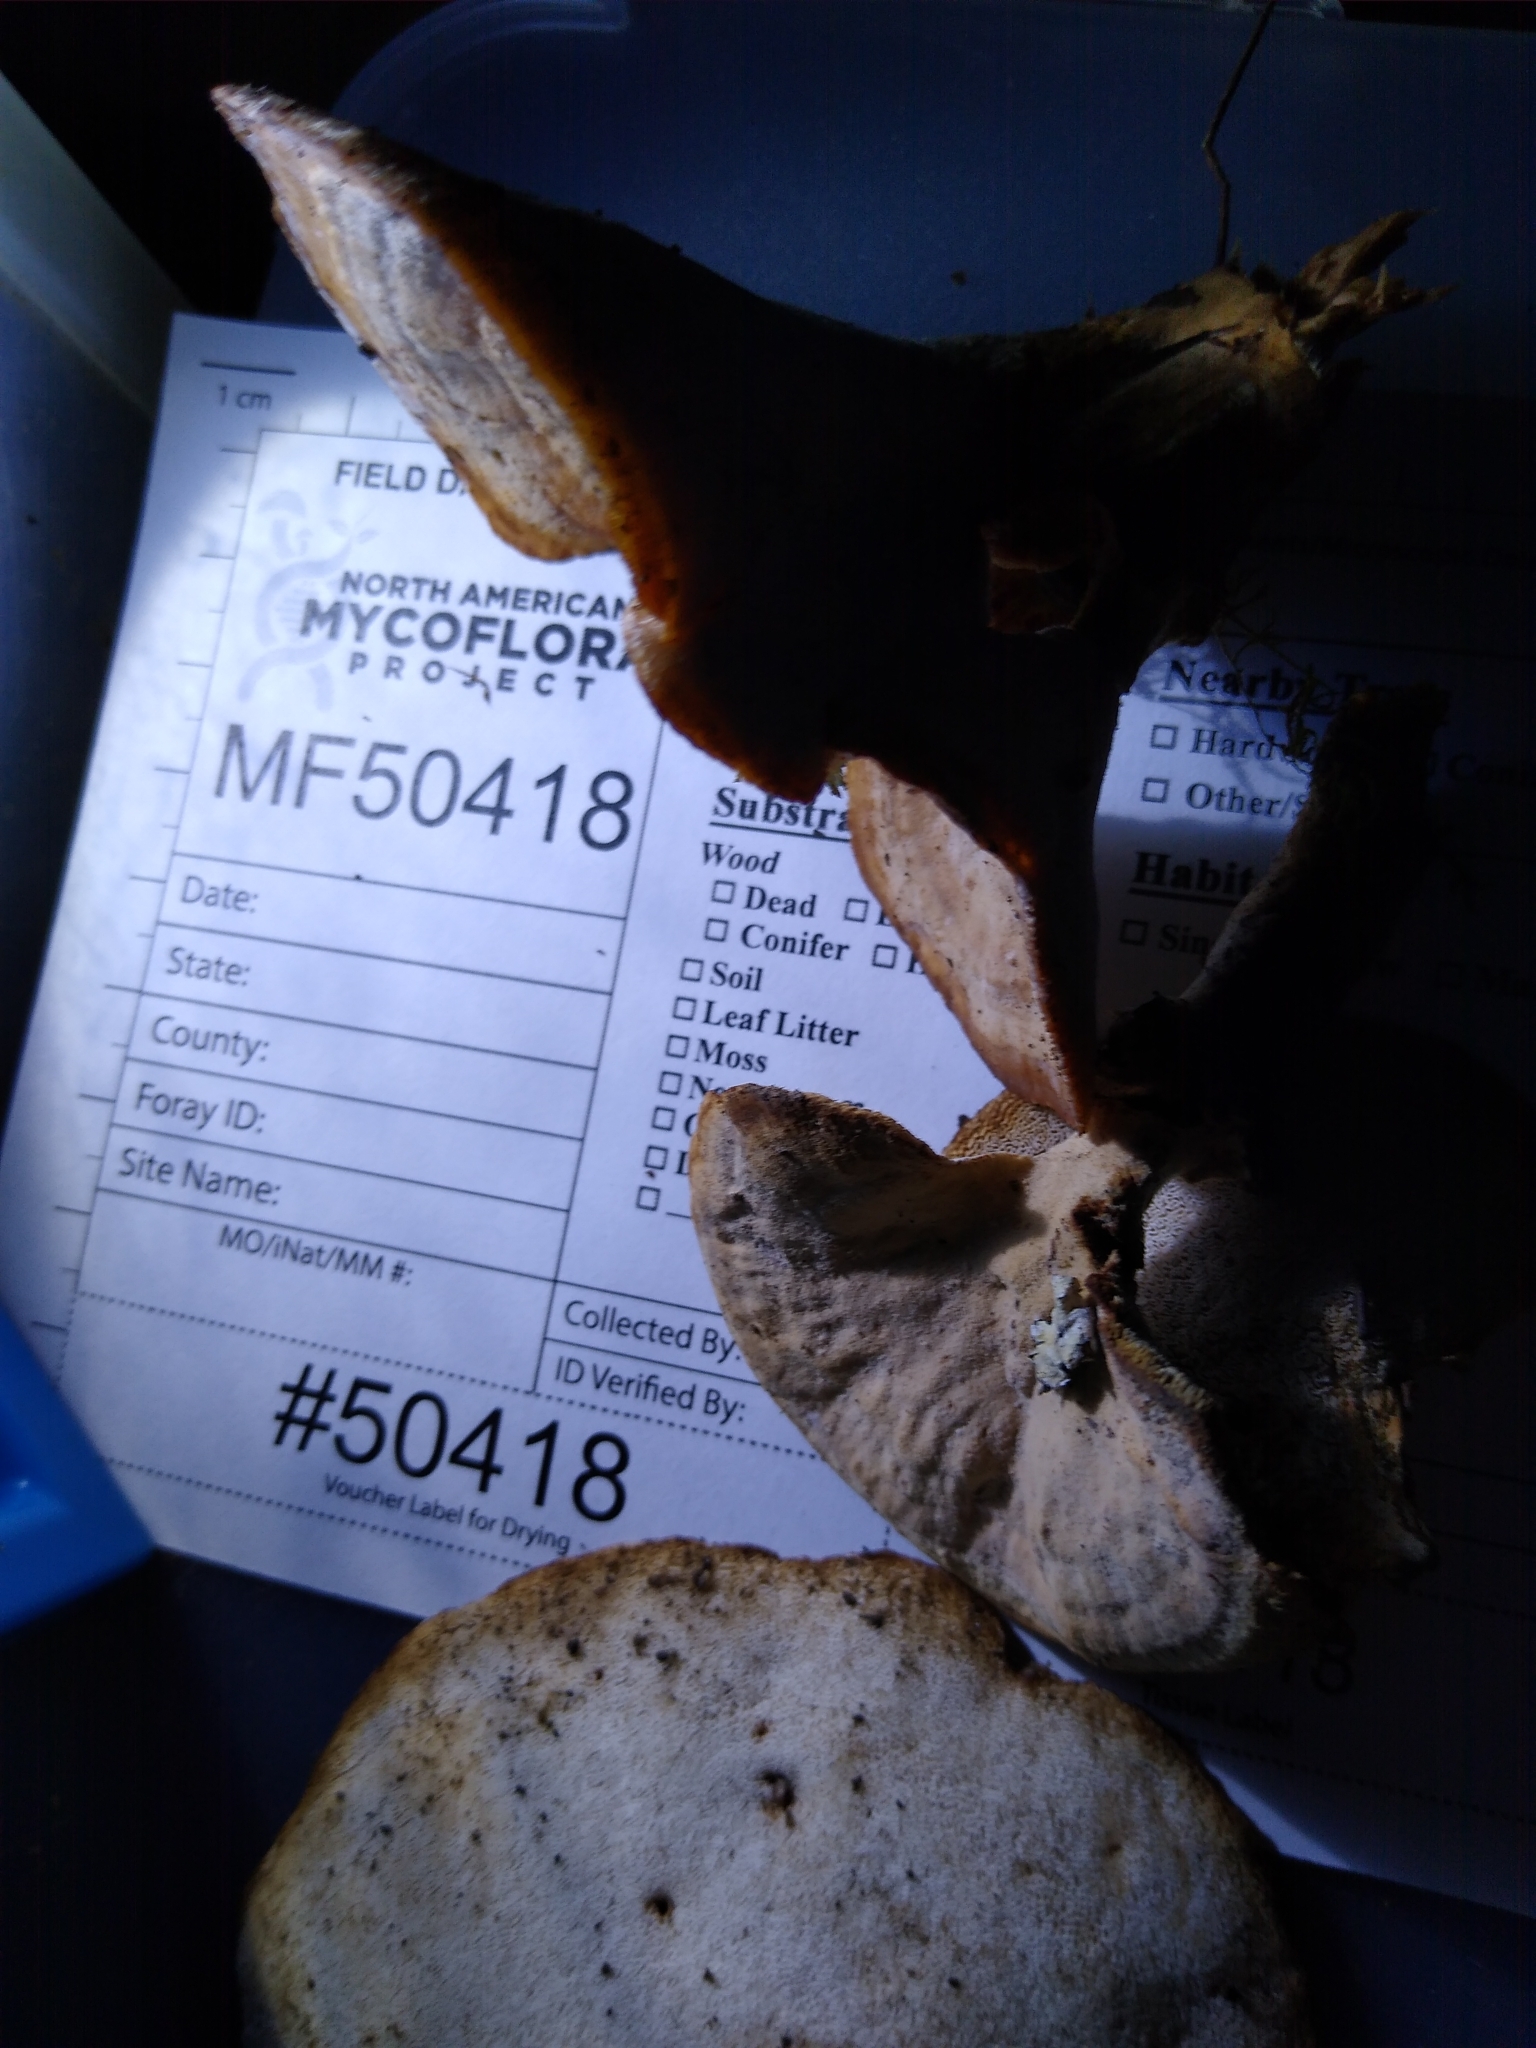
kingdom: Fungi
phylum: Basidiomycota
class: Agaricomycetes
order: Polyporales
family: Podoscyphaceae
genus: Abortiporus
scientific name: Abortiporus biennis
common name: Blushing rosette
